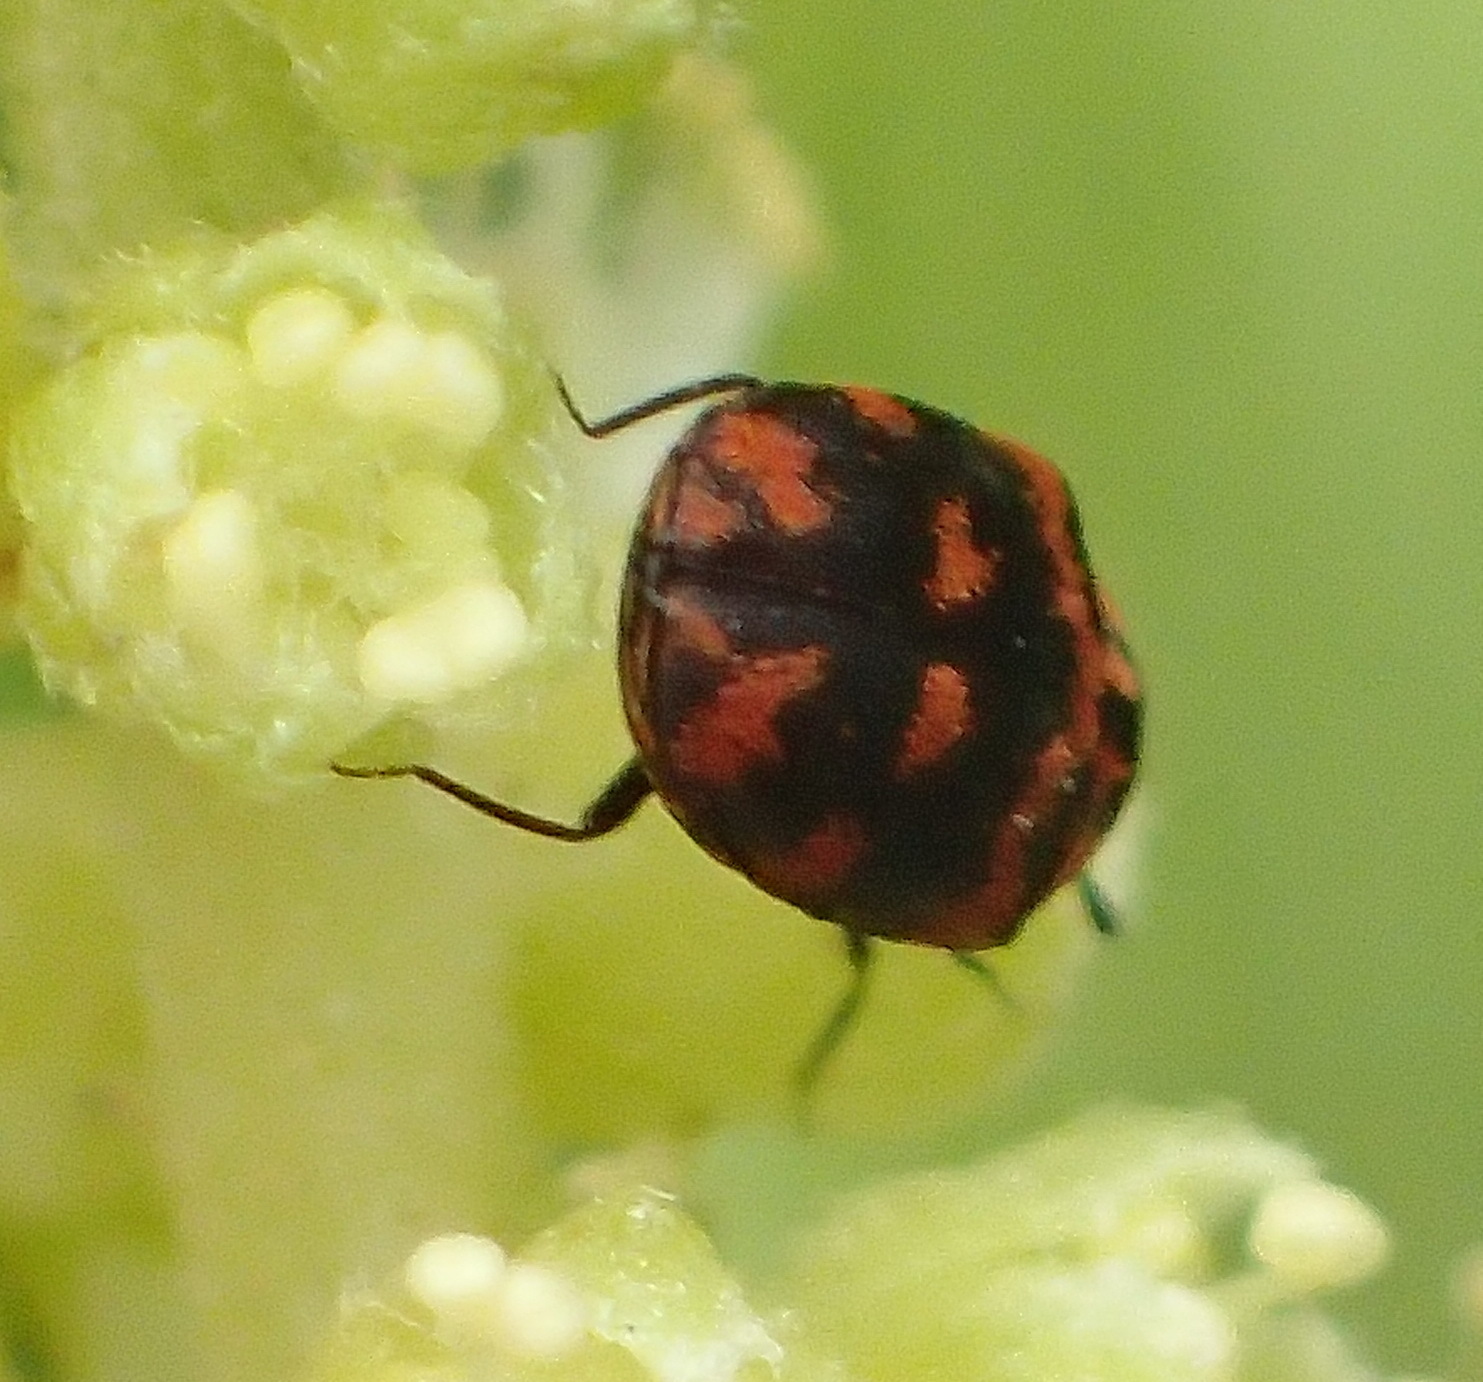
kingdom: Animalia
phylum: Arthropoda
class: Insecta
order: Coleoptera
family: Dermestidae
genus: Anthrenus
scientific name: Anthrenus margarethae
